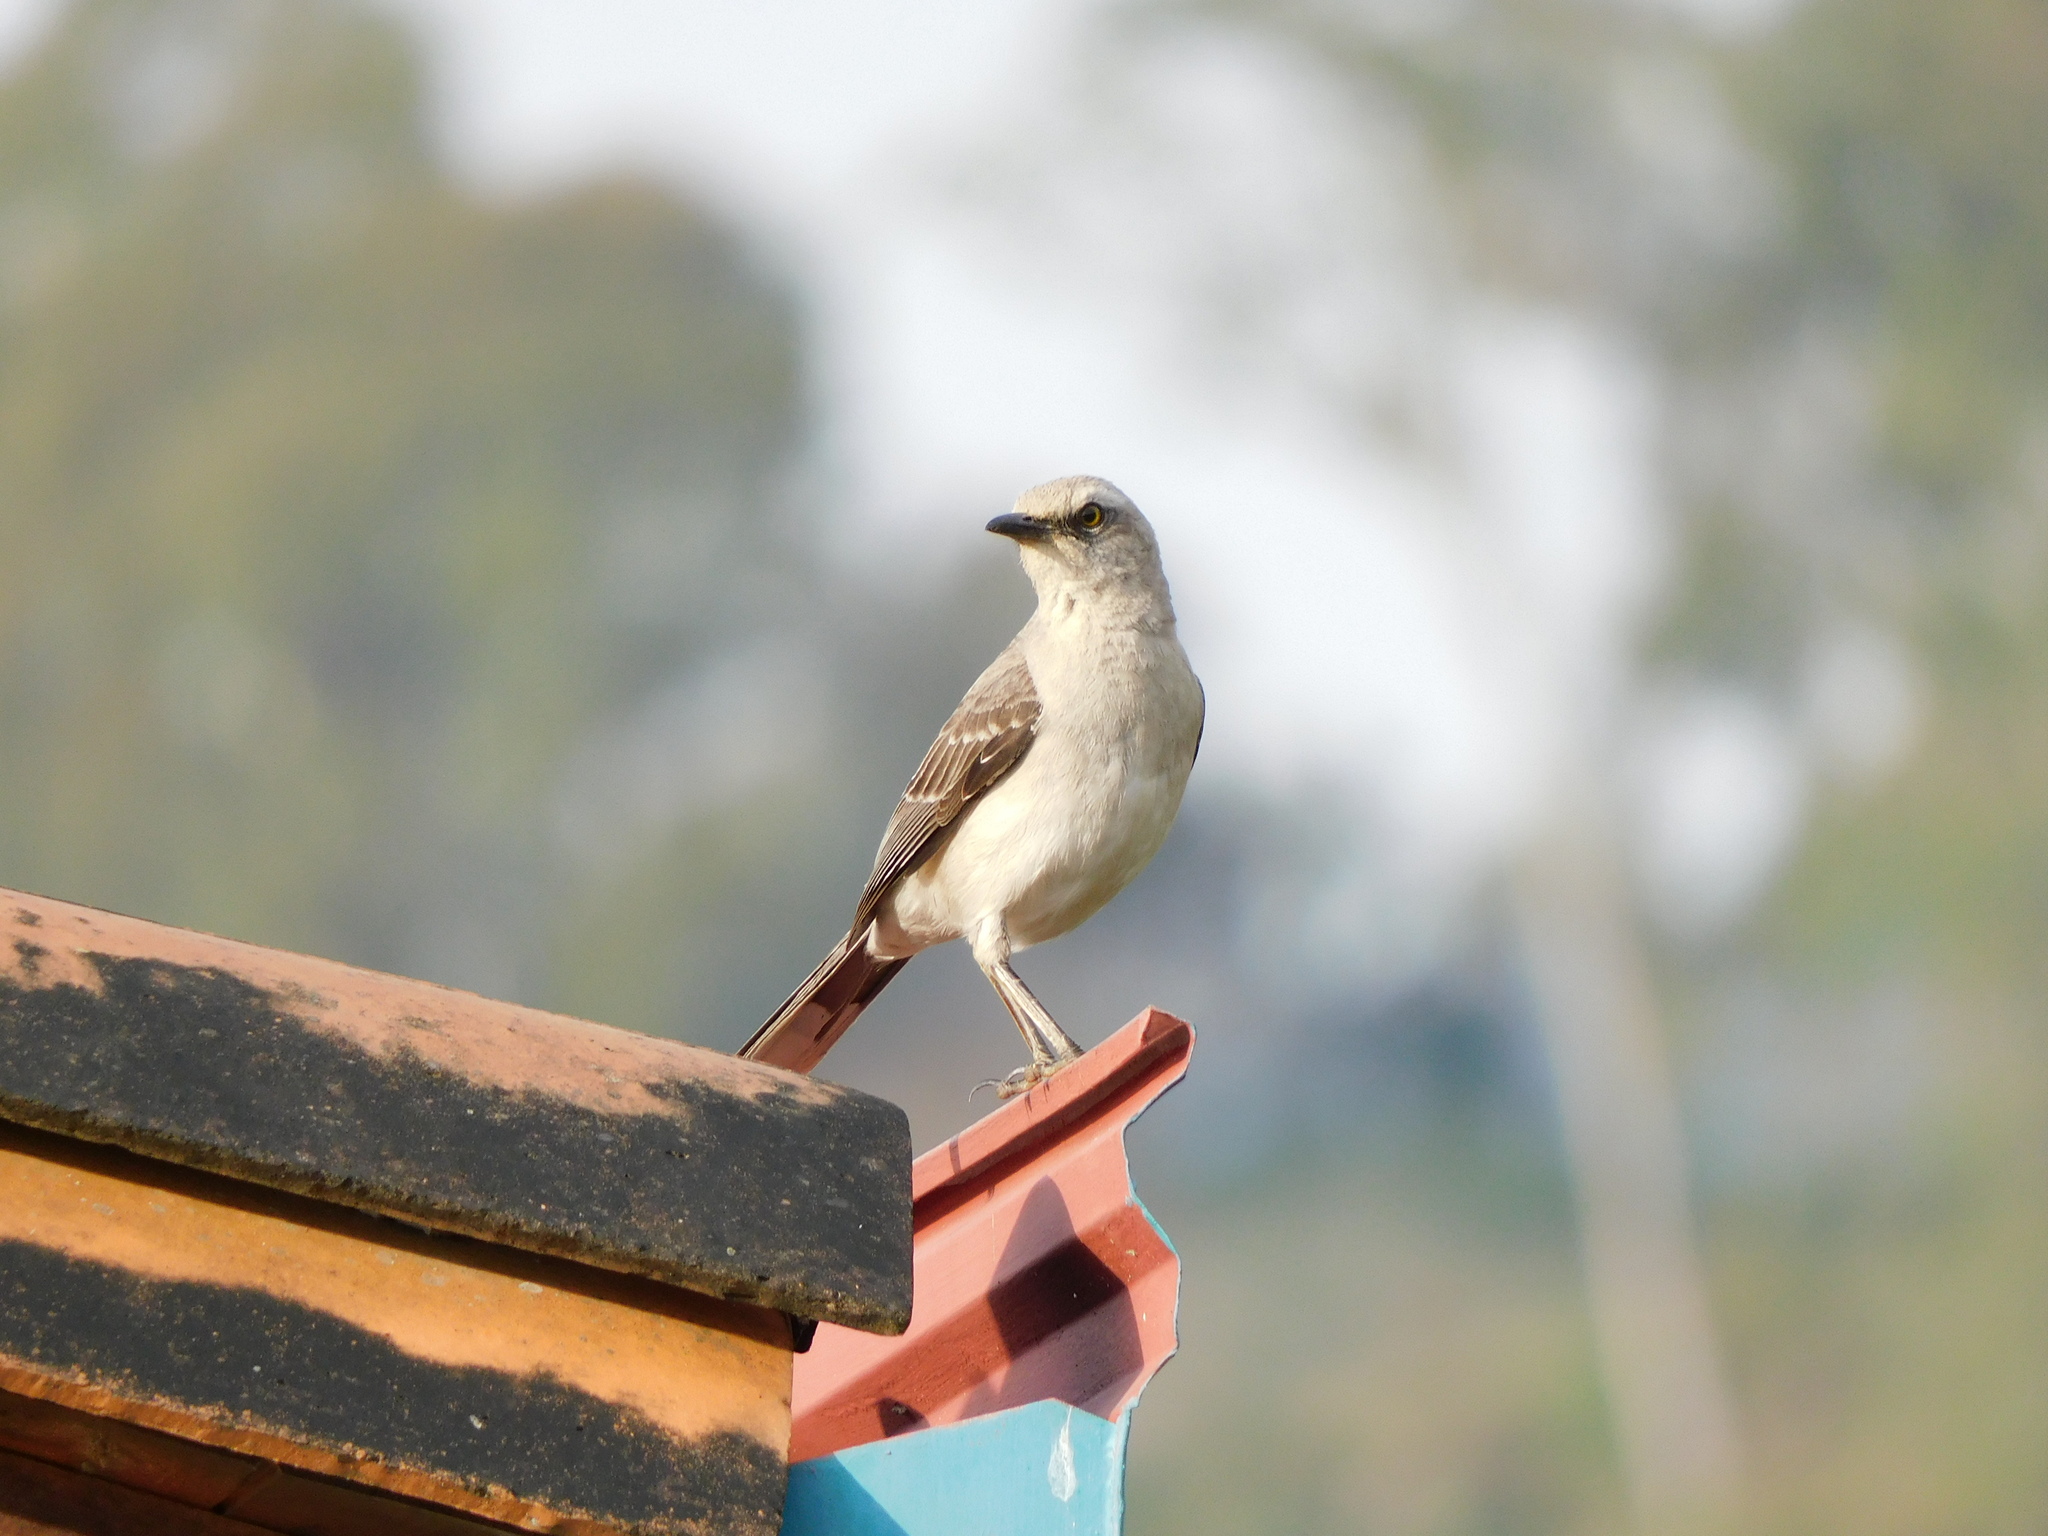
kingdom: Animalia
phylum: Chordata
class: Aves
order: Passeriformes
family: Mimidae
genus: Mimus
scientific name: Mimus gilvus
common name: Tropical mockingbird
